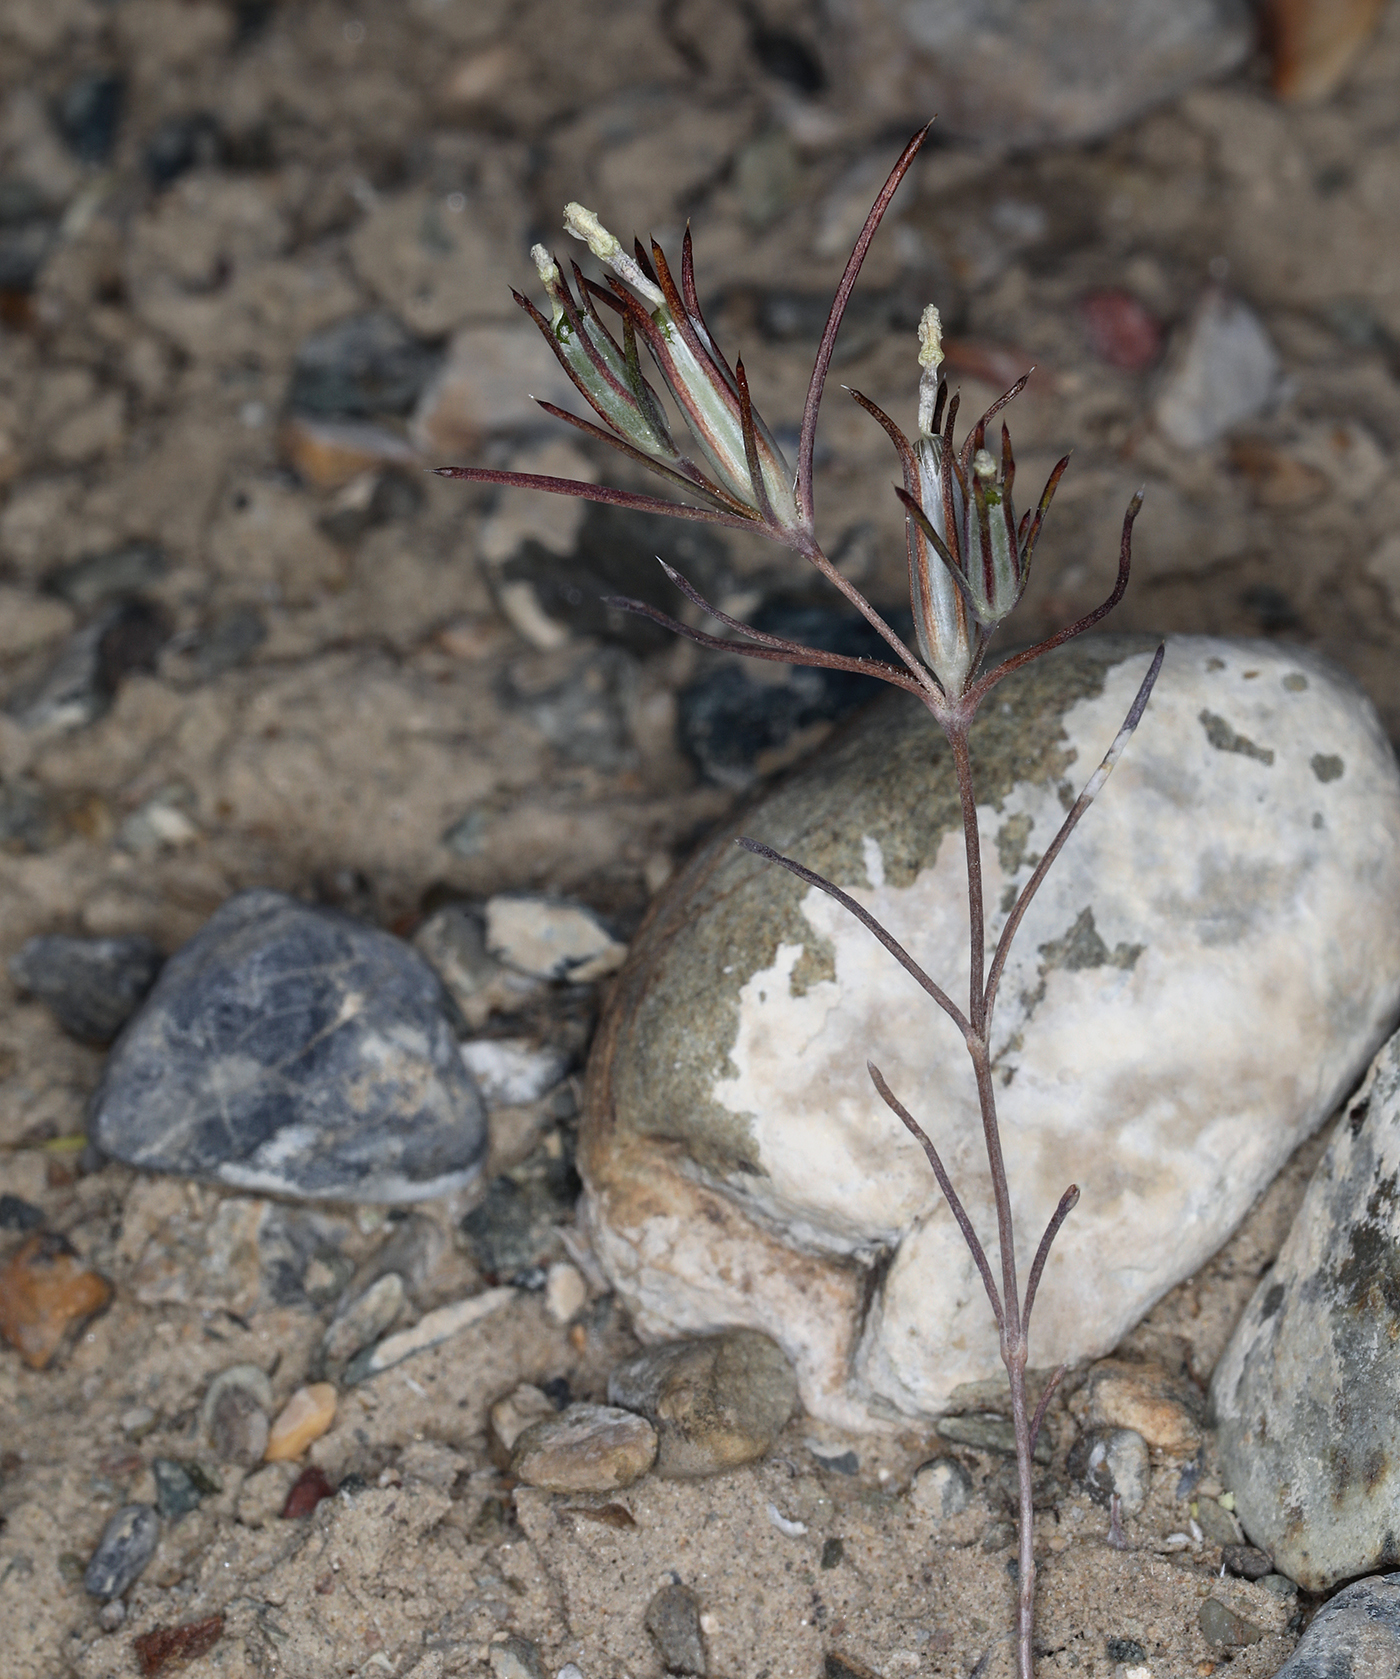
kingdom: Plantae
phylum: Tracheophyta
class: Magnoliopsida
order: Ericales
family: Polemoniaceae
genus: Linanthus
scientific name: Linanthus bigelovii
